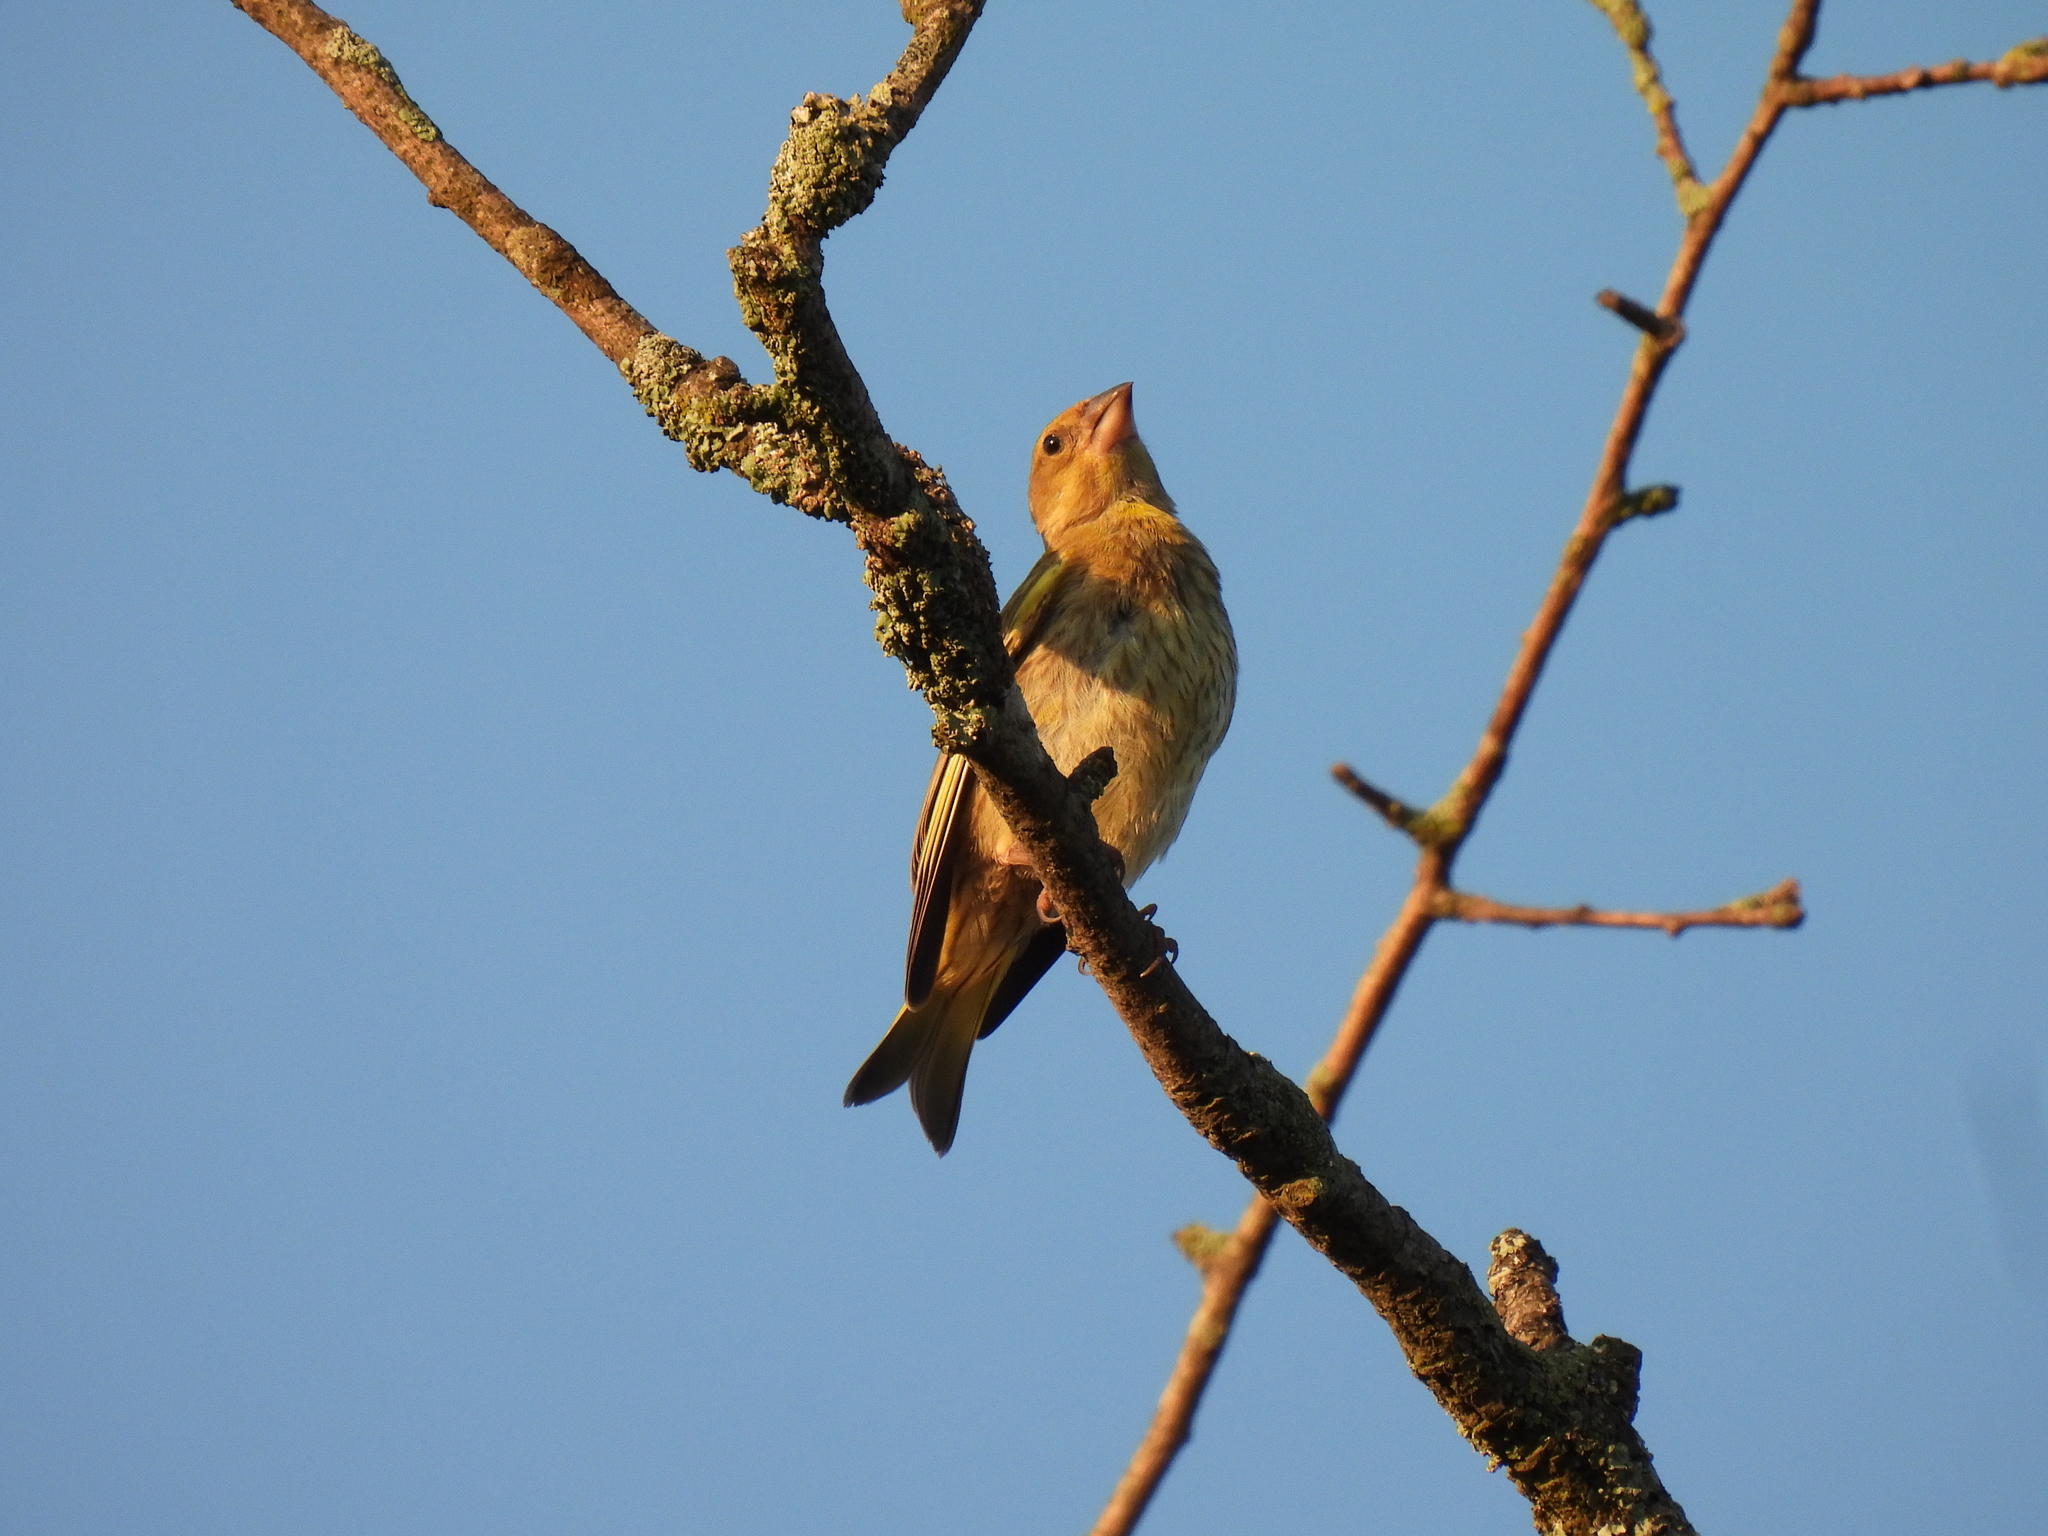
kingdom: Plantae
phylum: Tracheophyta
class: Liliopsida
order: Poales
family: Poaceae
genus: Chloris
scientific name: Chloris chloris
